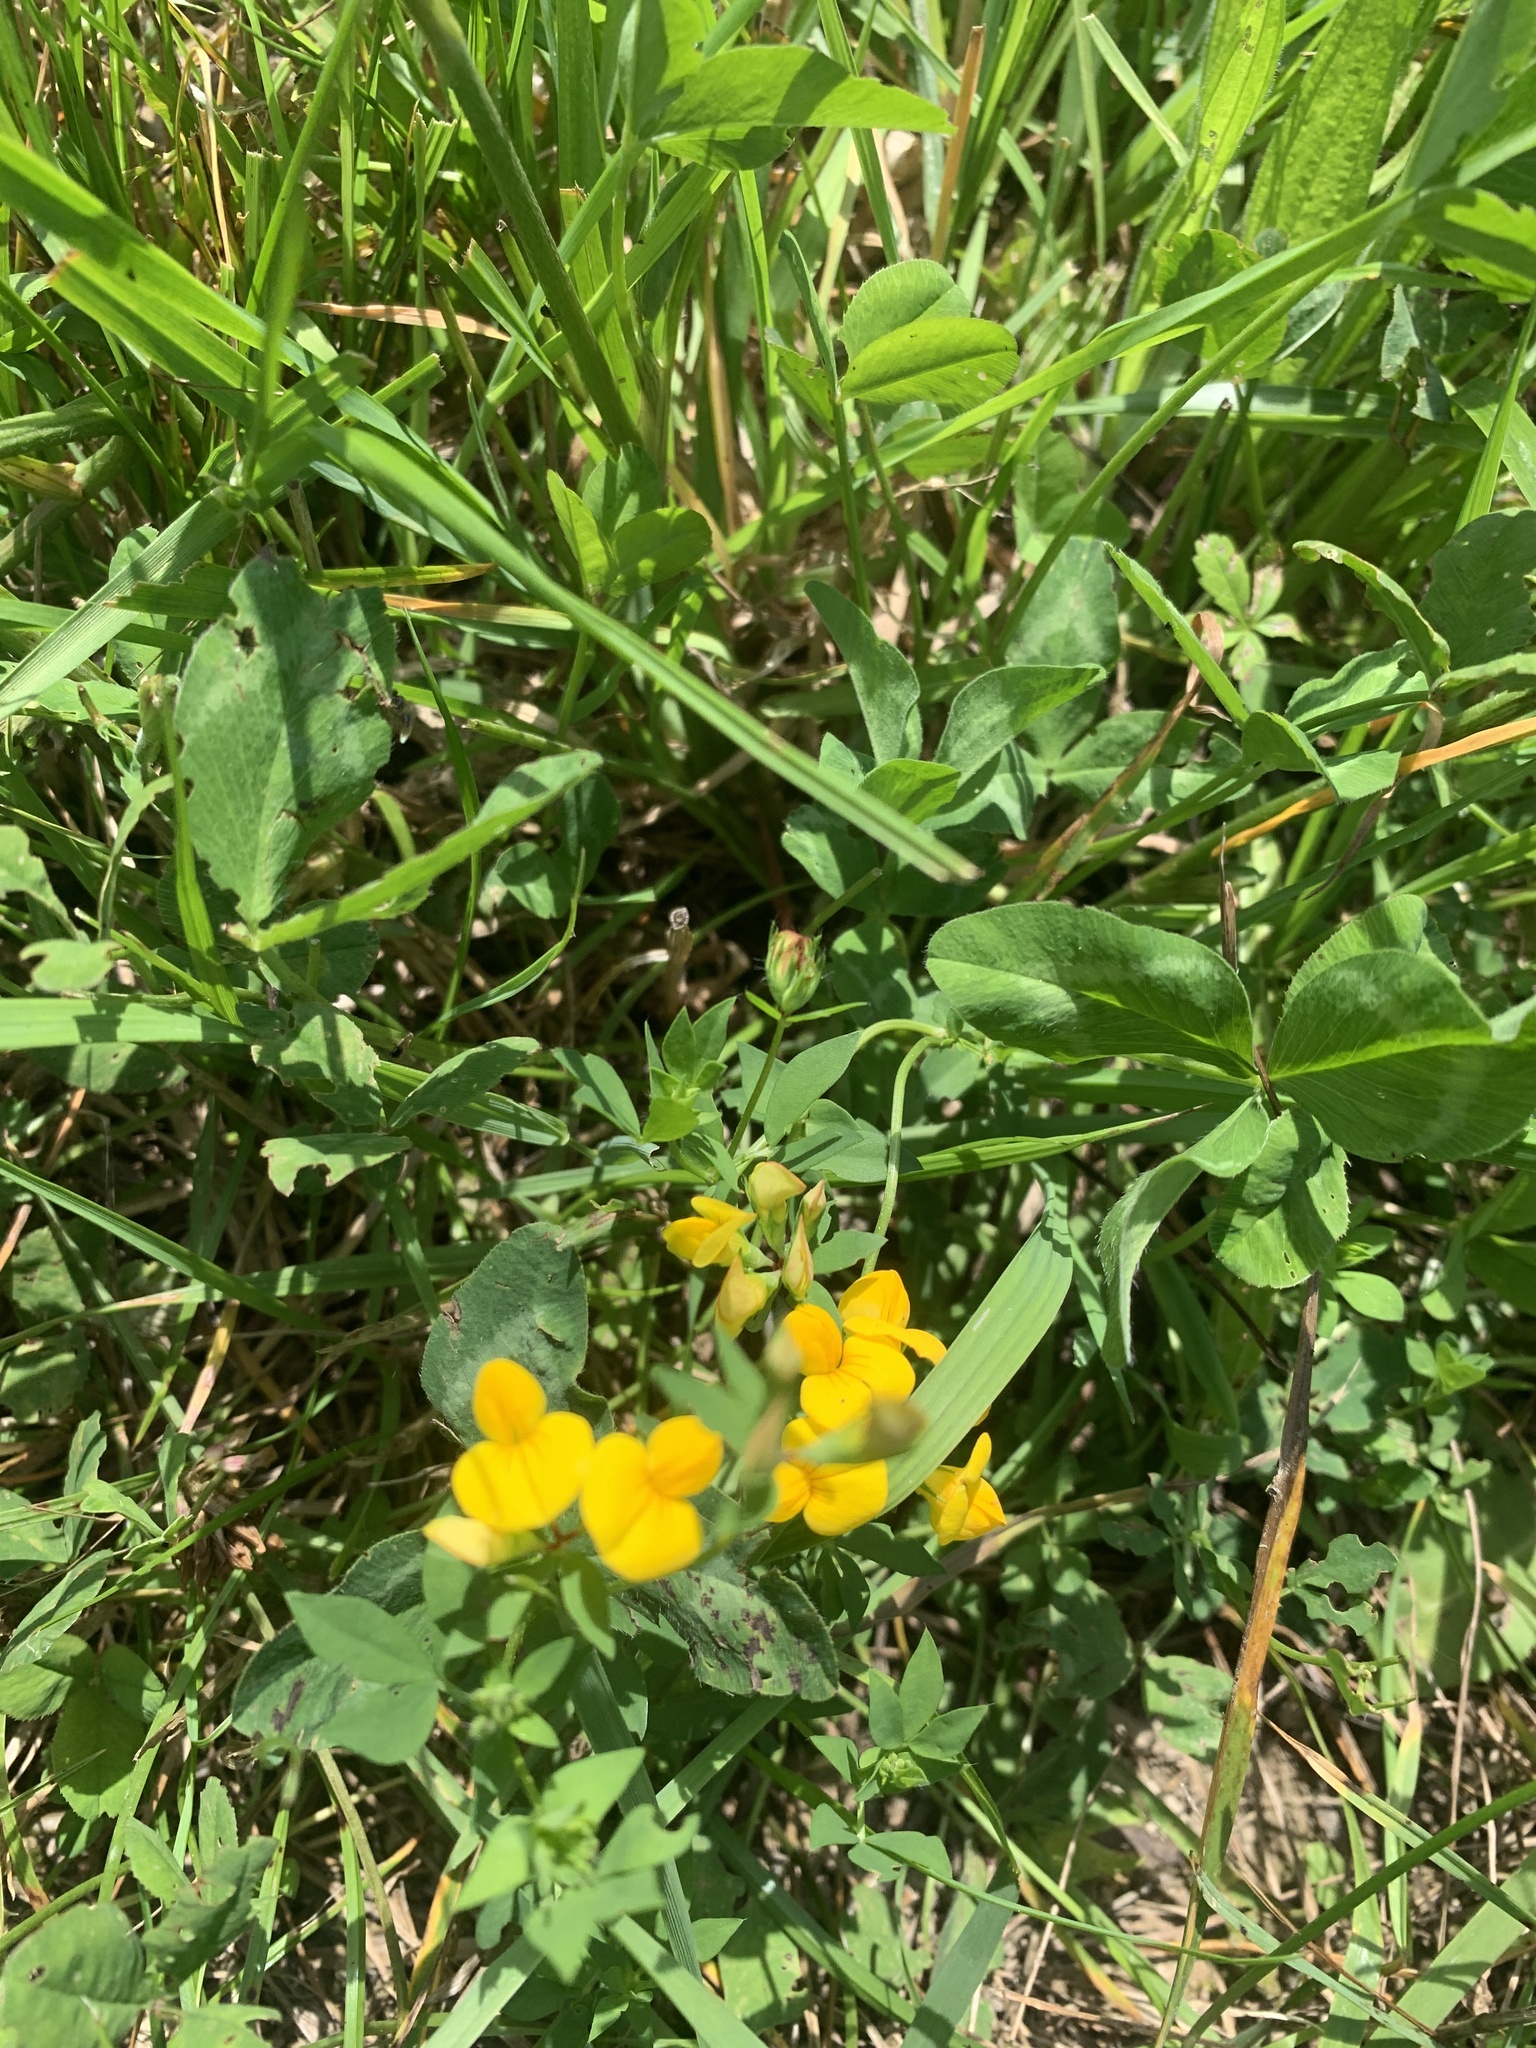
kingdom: Plantae
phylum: Tracheophyta
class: Magnoliopsida
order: Fabales
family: Fabaceae
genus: Lotus
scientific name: Lotus corniculatus
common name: Common bird's-foot-trefoil
